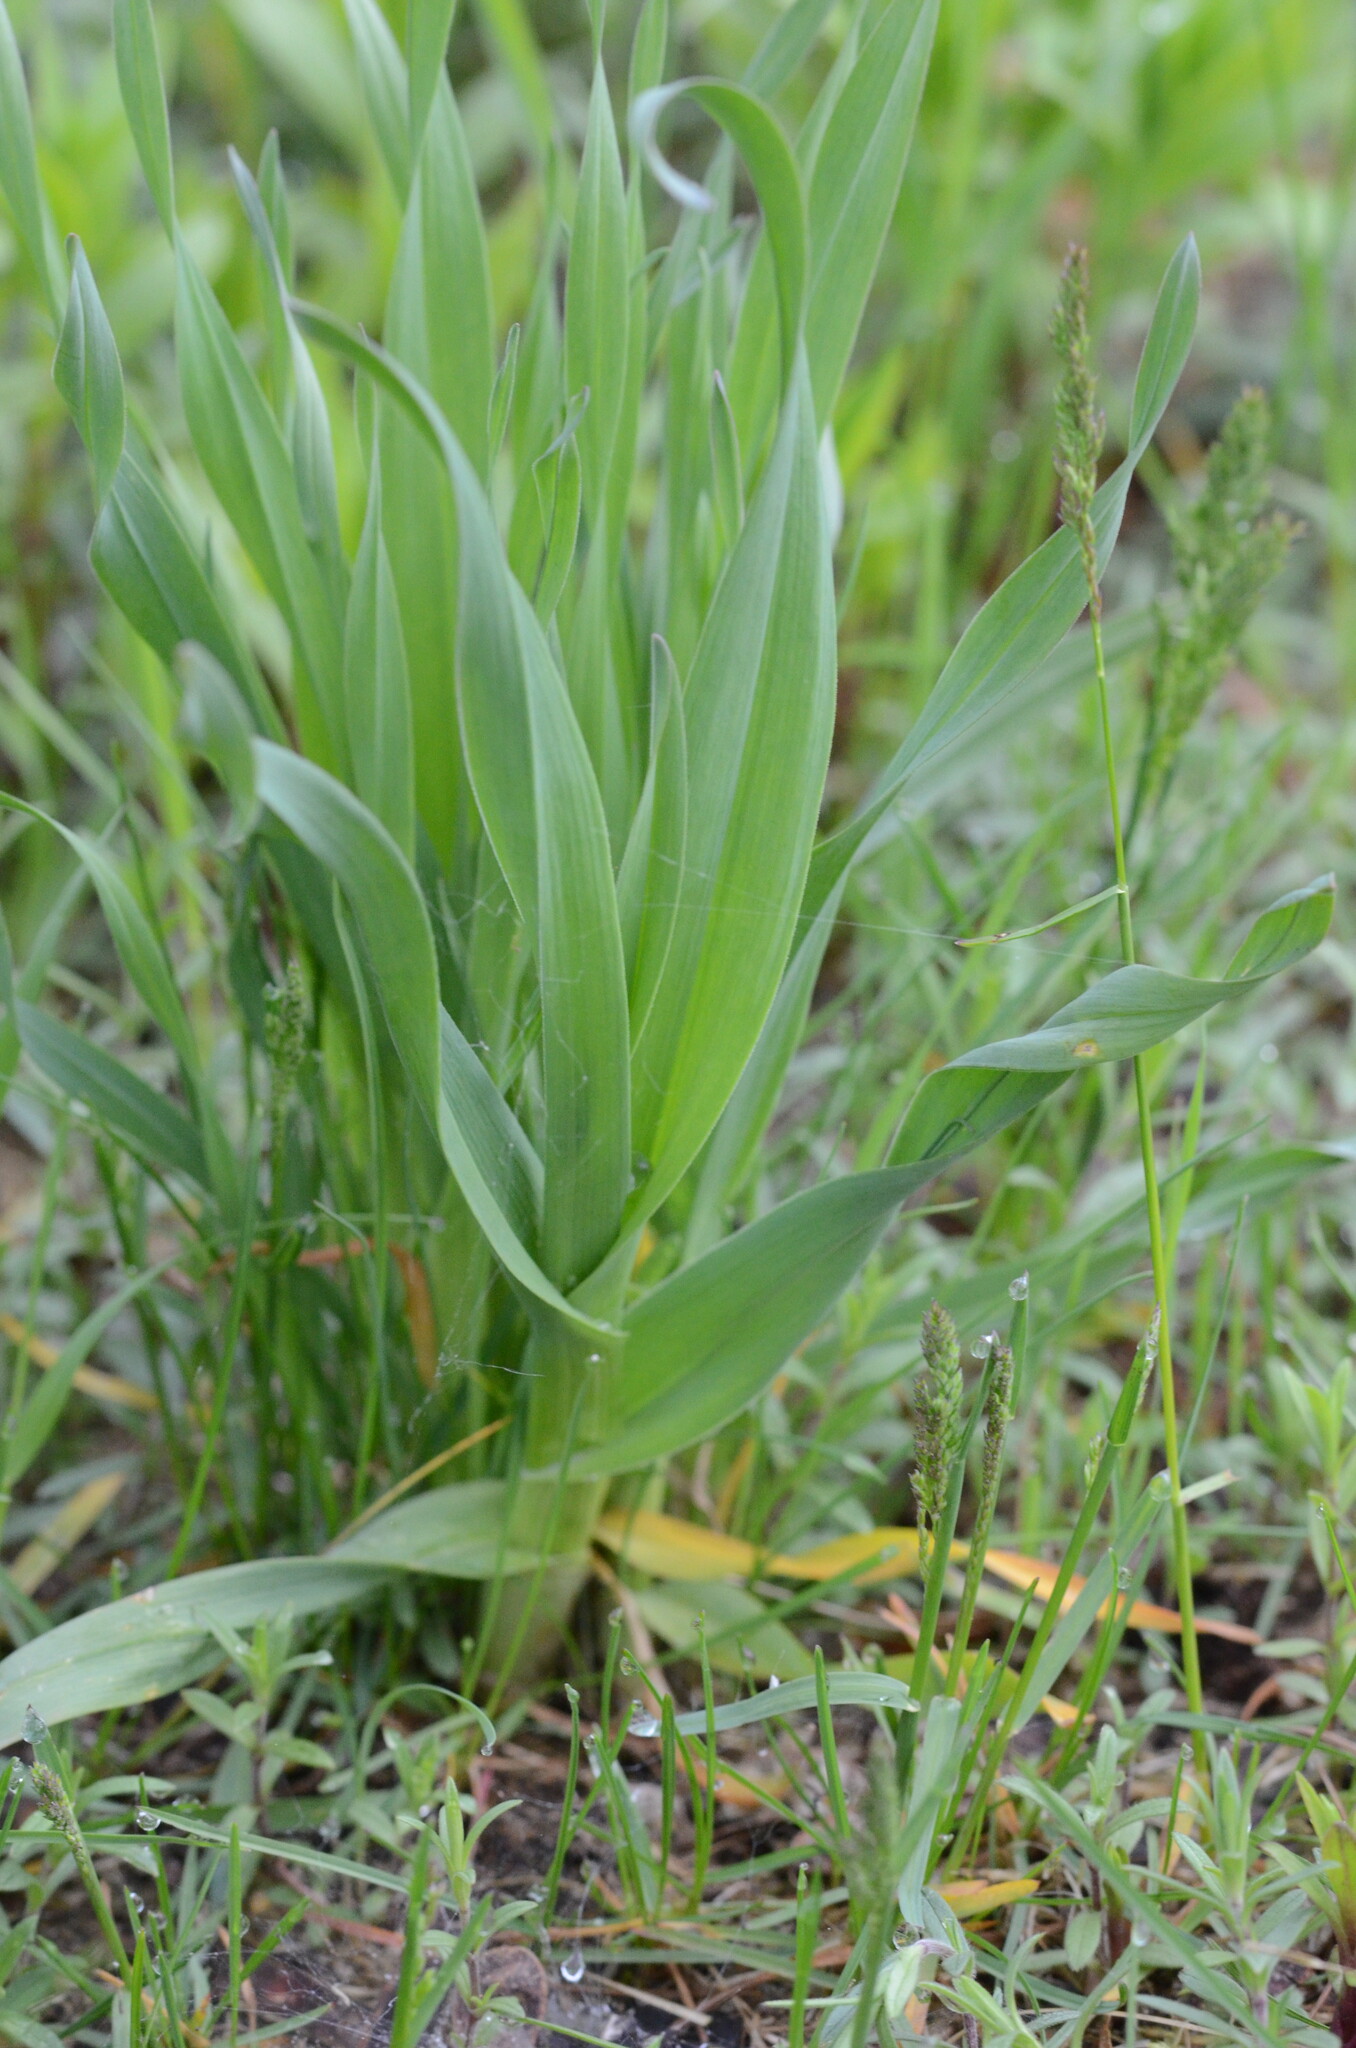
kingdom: Plantae
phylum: Tracheophyta
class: Liliopsida
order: Asparagales
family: Amaryllidaceae
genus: Allium
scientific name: Allium scorodoprasum
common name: Sand leek
